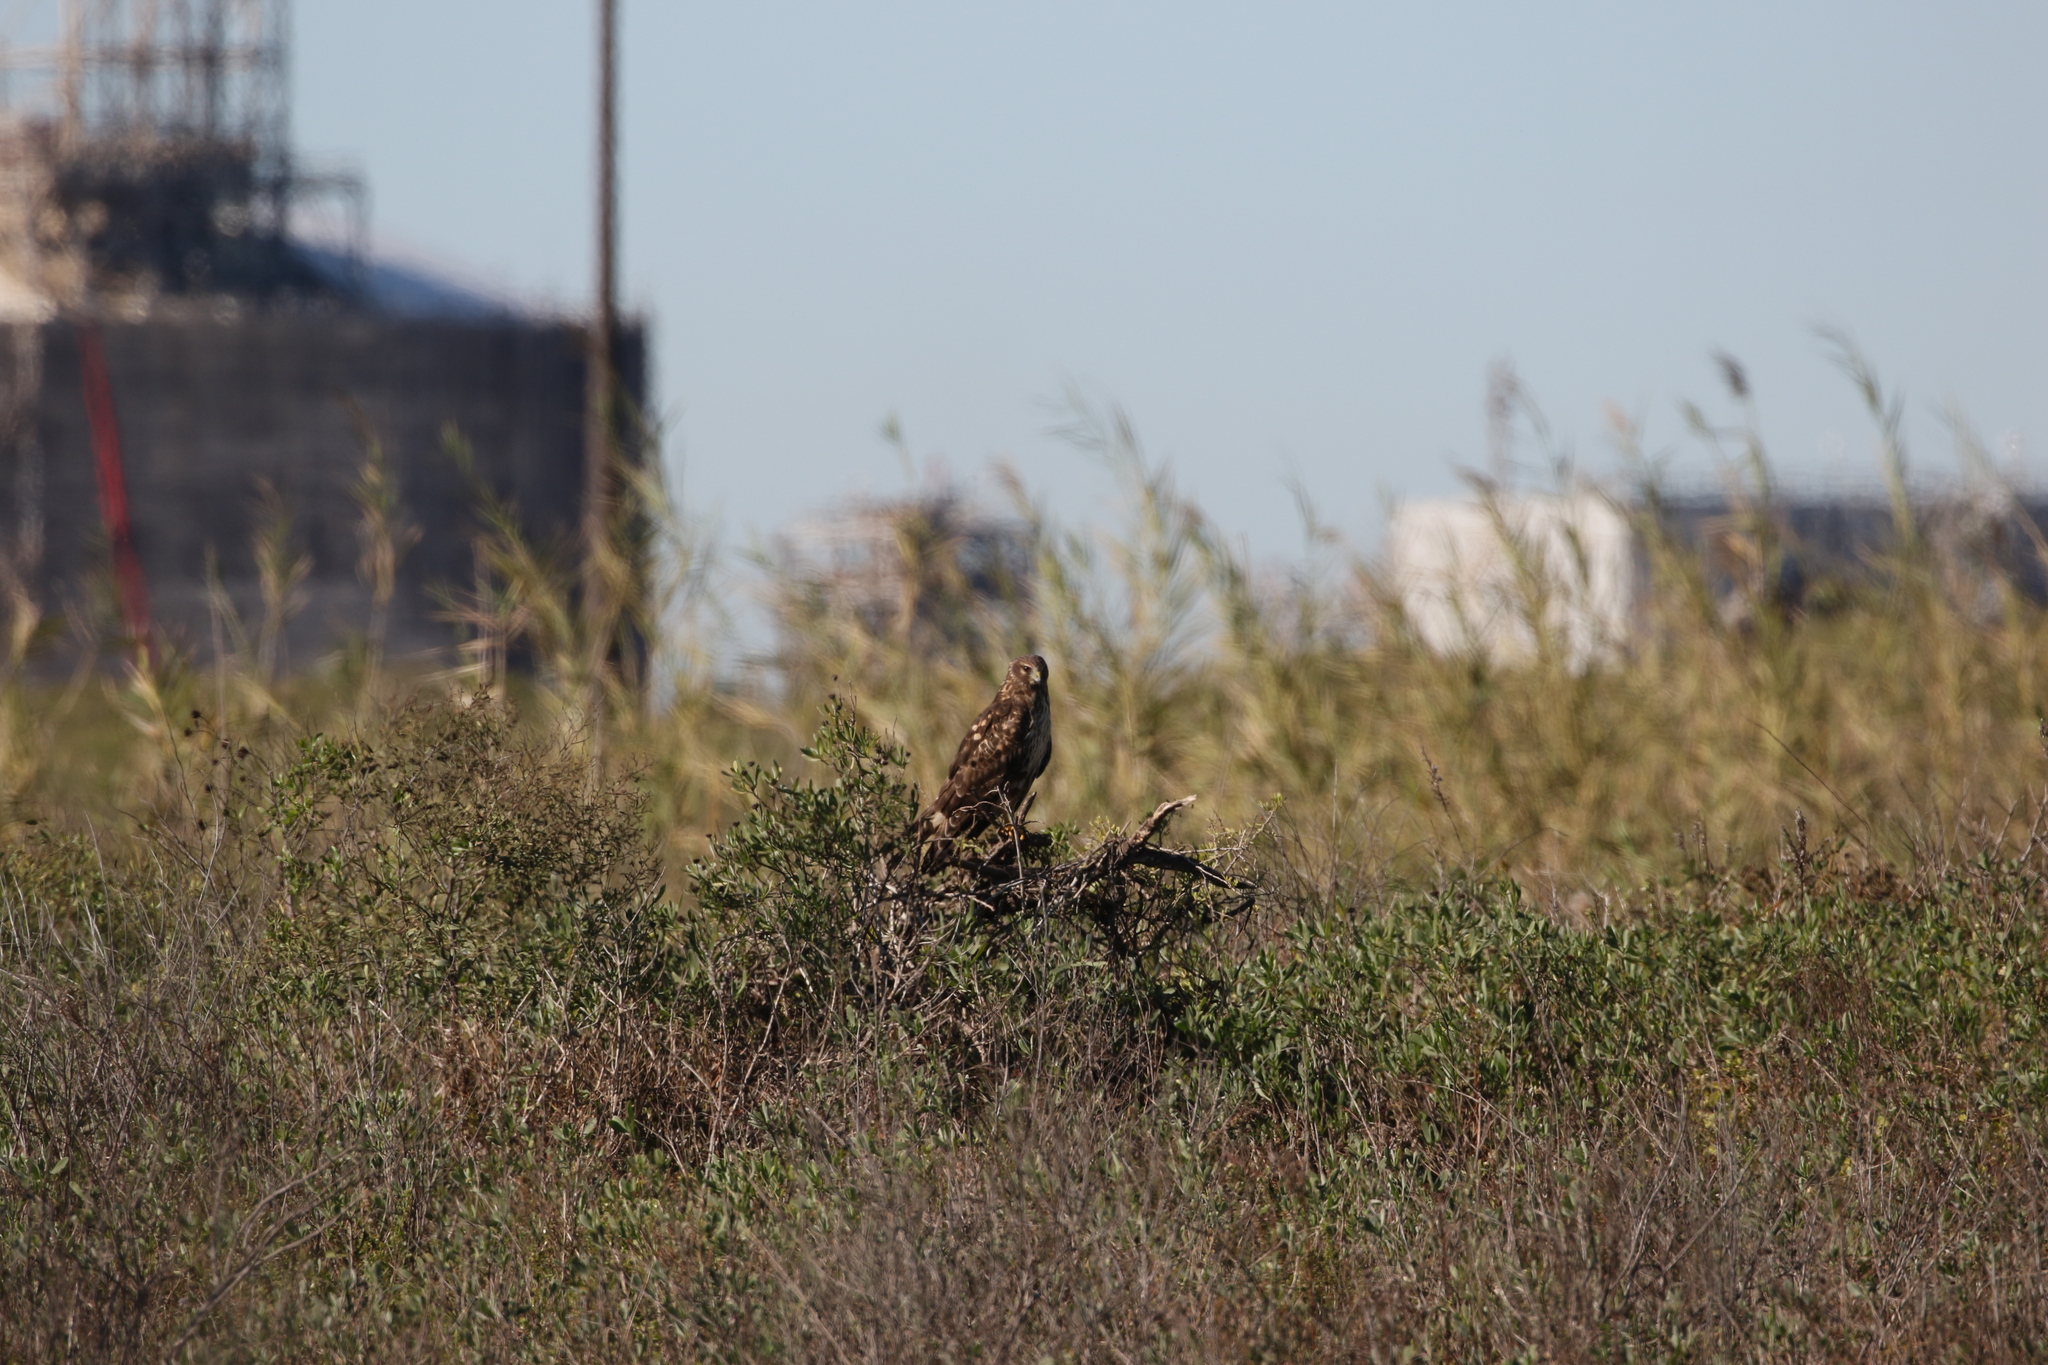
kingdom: Animalia
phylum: Chordata
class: Aves
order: Accipitriformes
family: Accipitridae
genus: Circus
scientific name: Circus cyaneus
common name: Hen harrier
